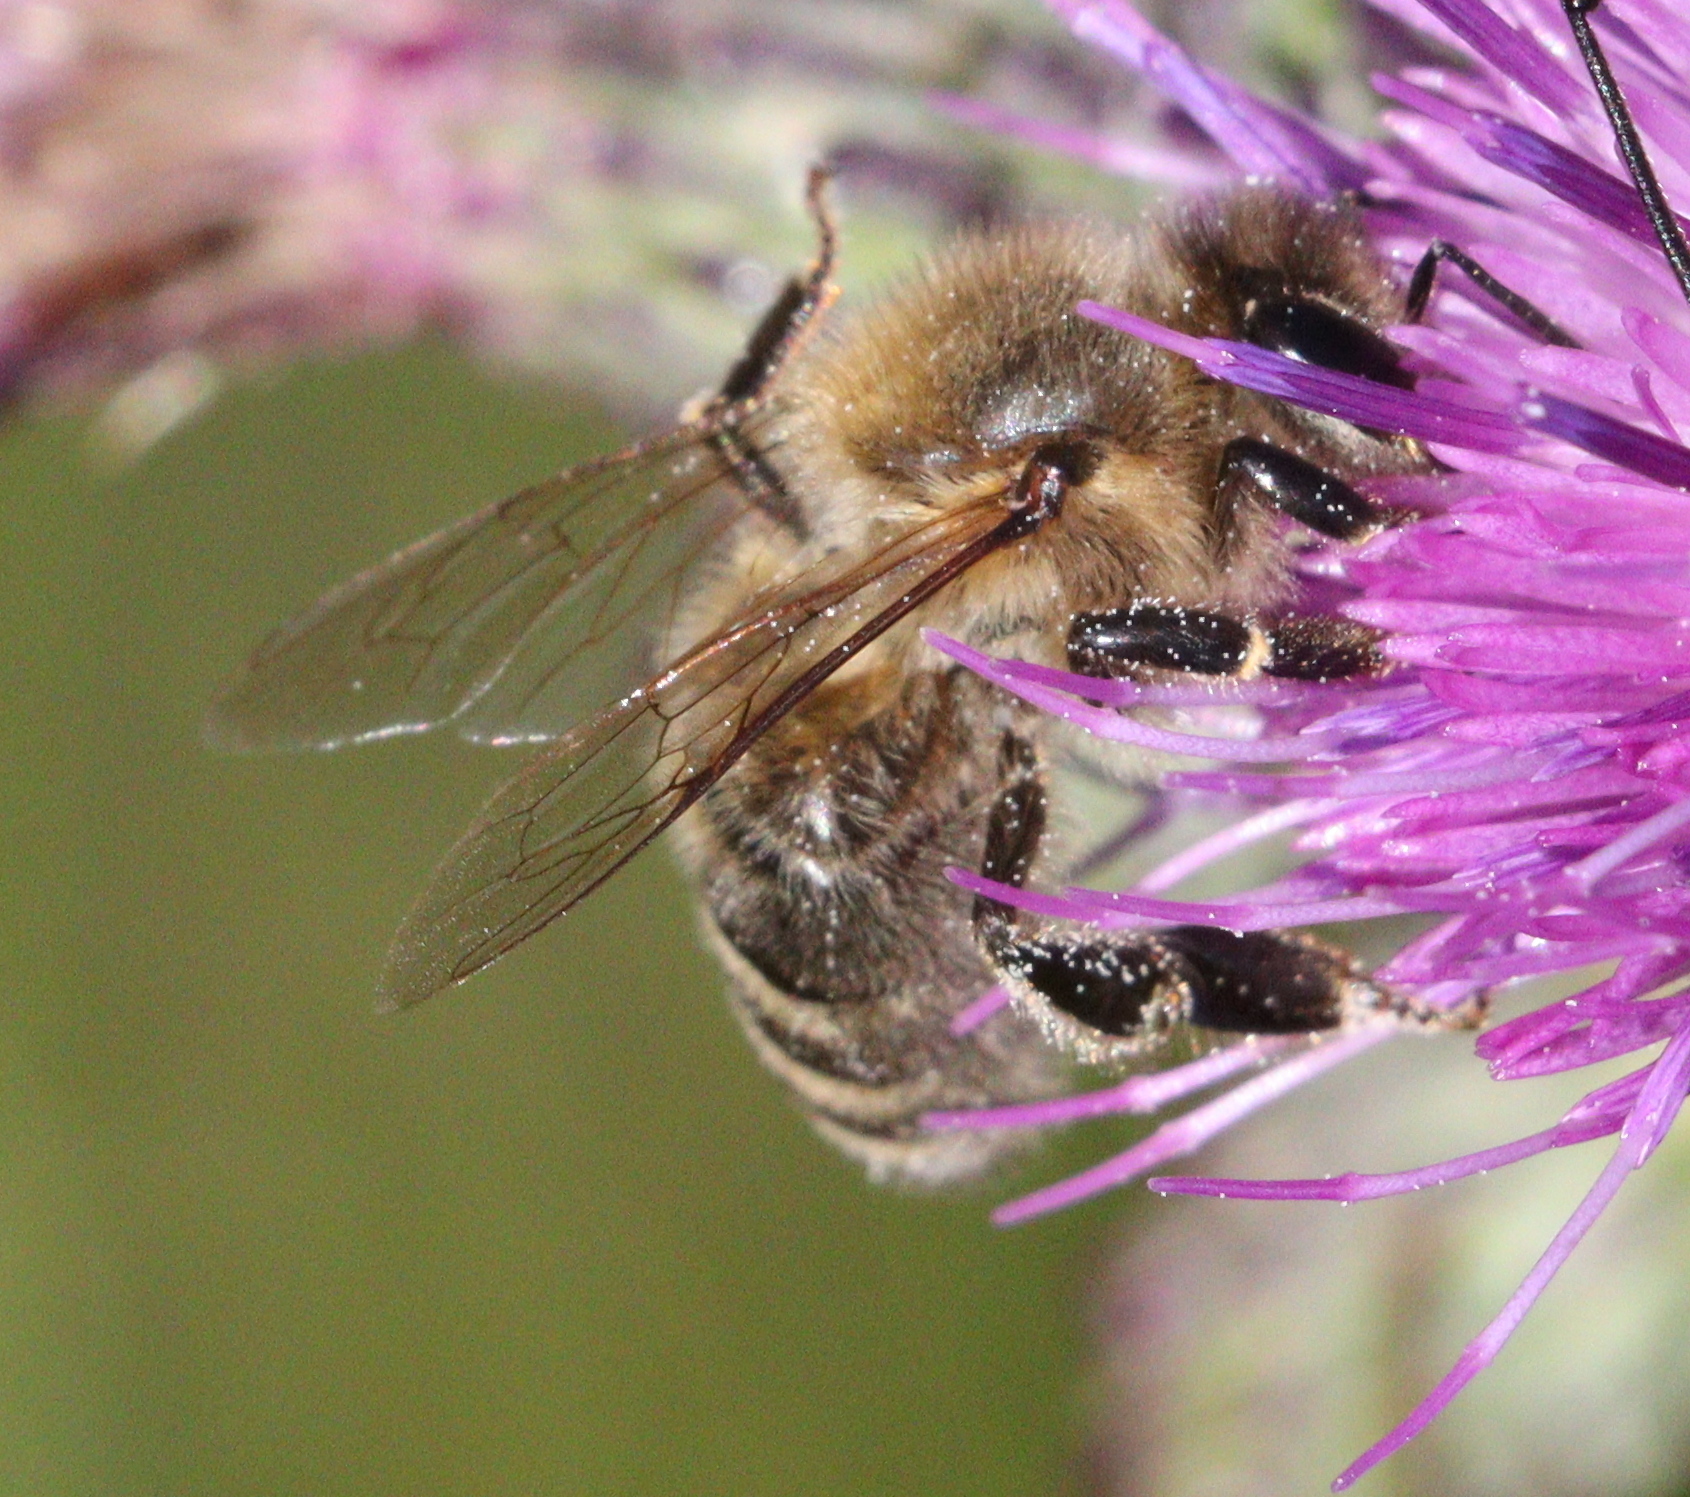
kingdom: Animalia
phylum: Arthropoda
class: Insecta
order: Hymenoptera
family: Apidae
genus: Apis
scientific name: Apis mellifera
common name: Honey bee
